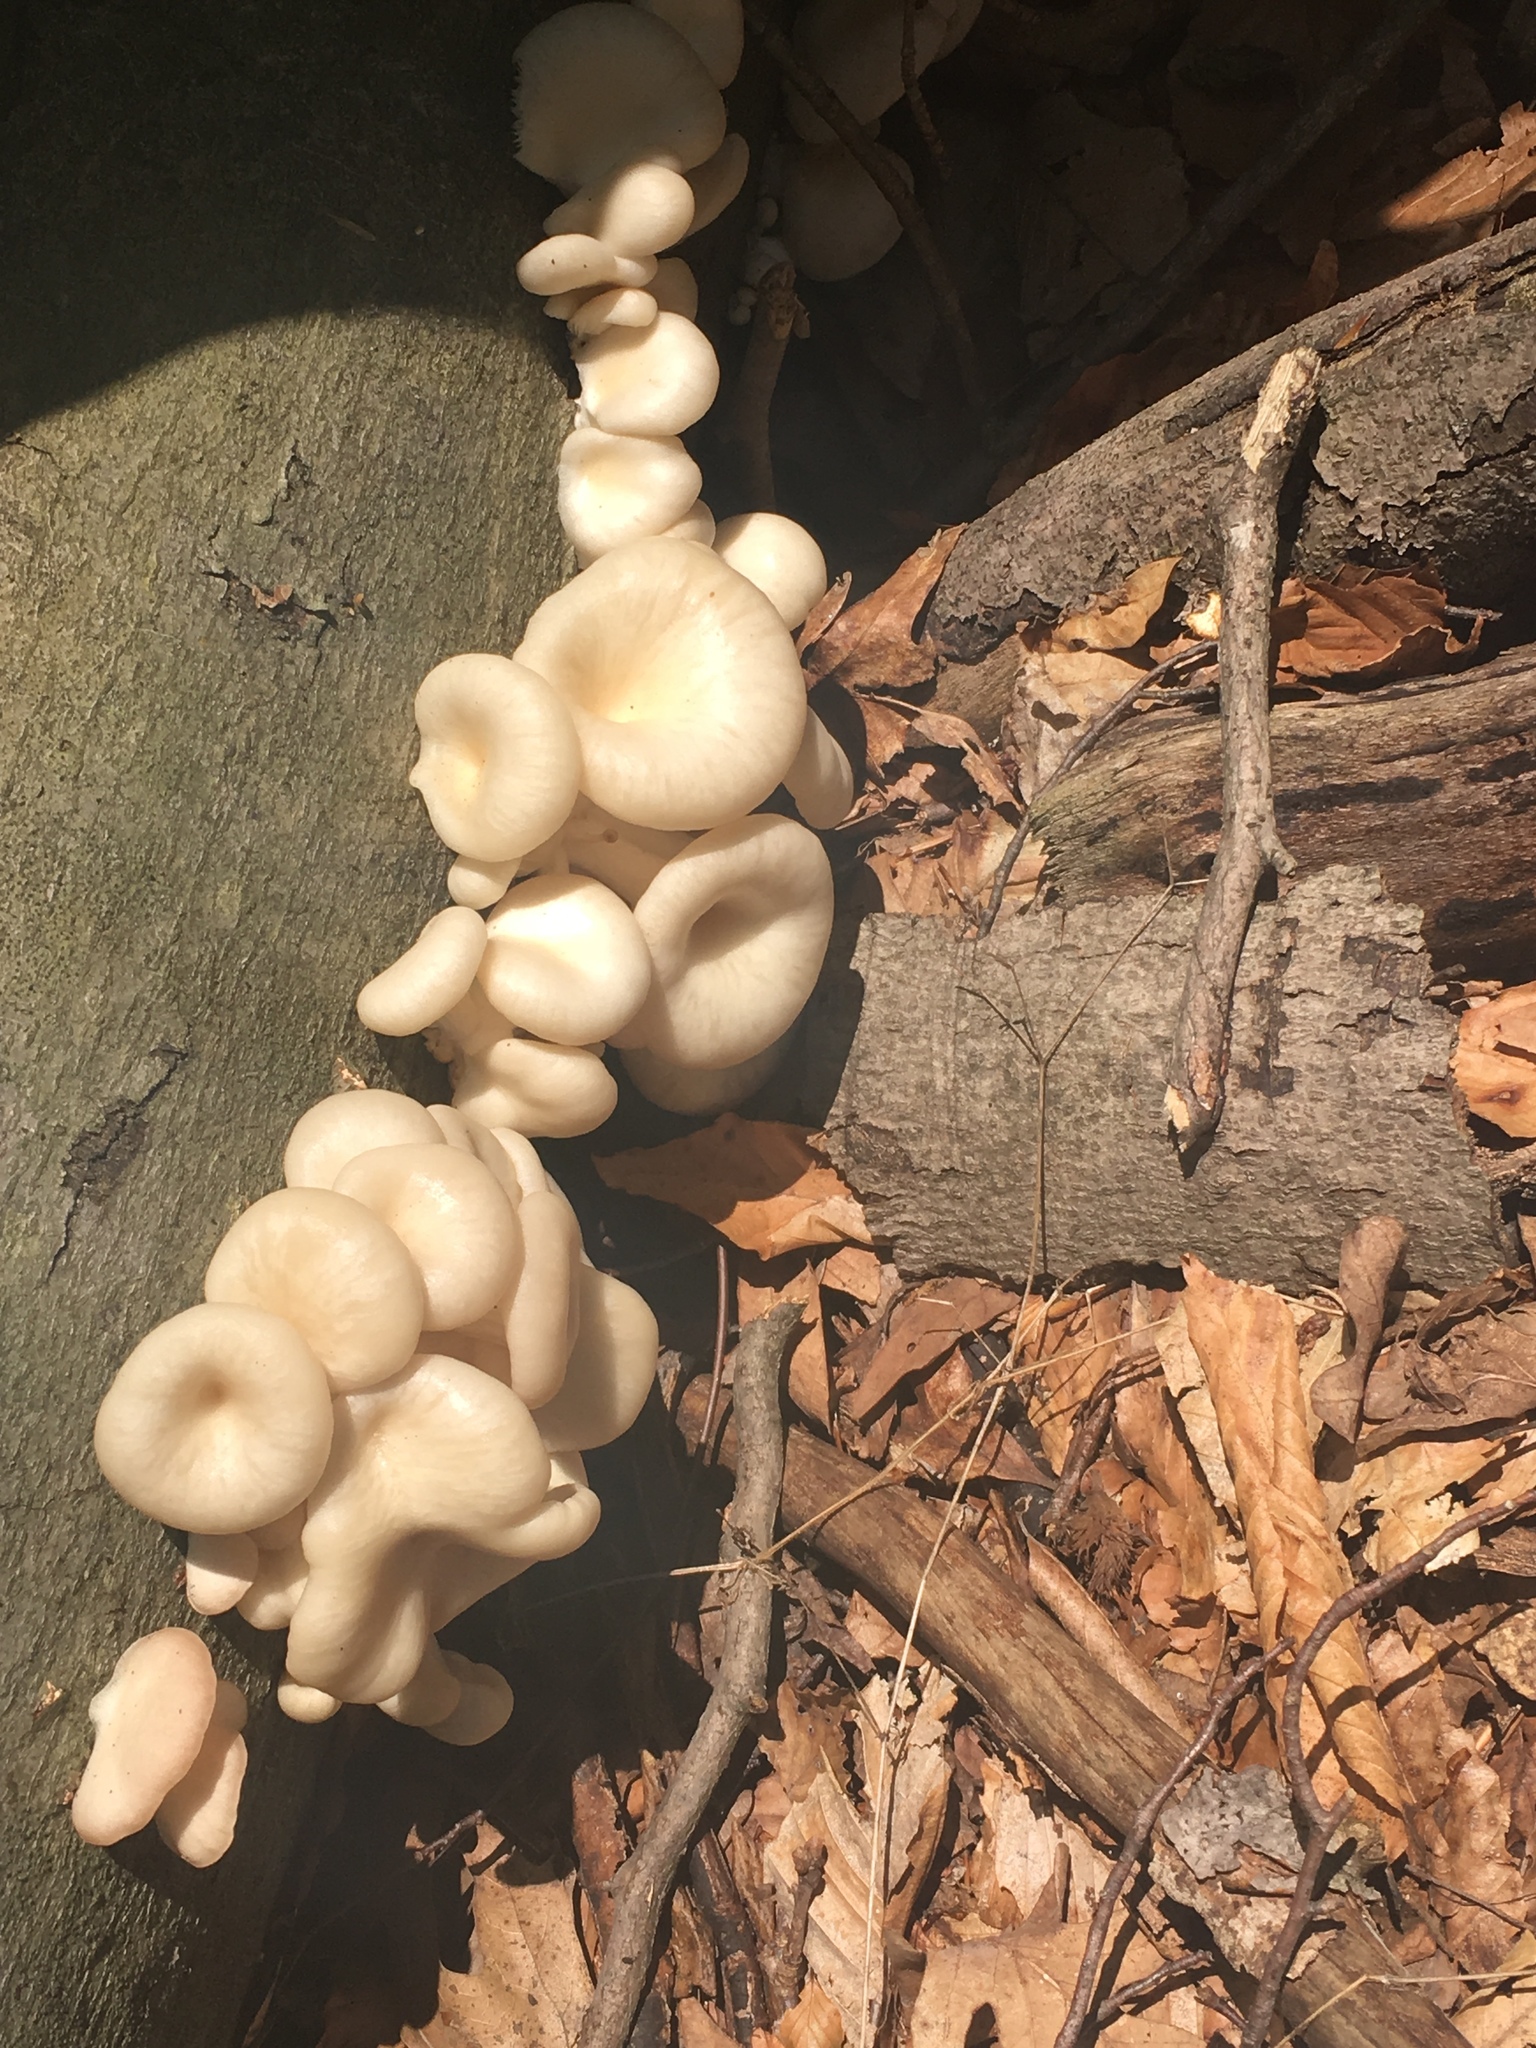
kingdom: Fungi
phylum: Basidiomycota
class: Agaricomycetes
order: Agaricales
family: Pleurotaceae
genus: Pleurotus
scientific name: Pleurotus pulmonarius
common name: Pale oyster
